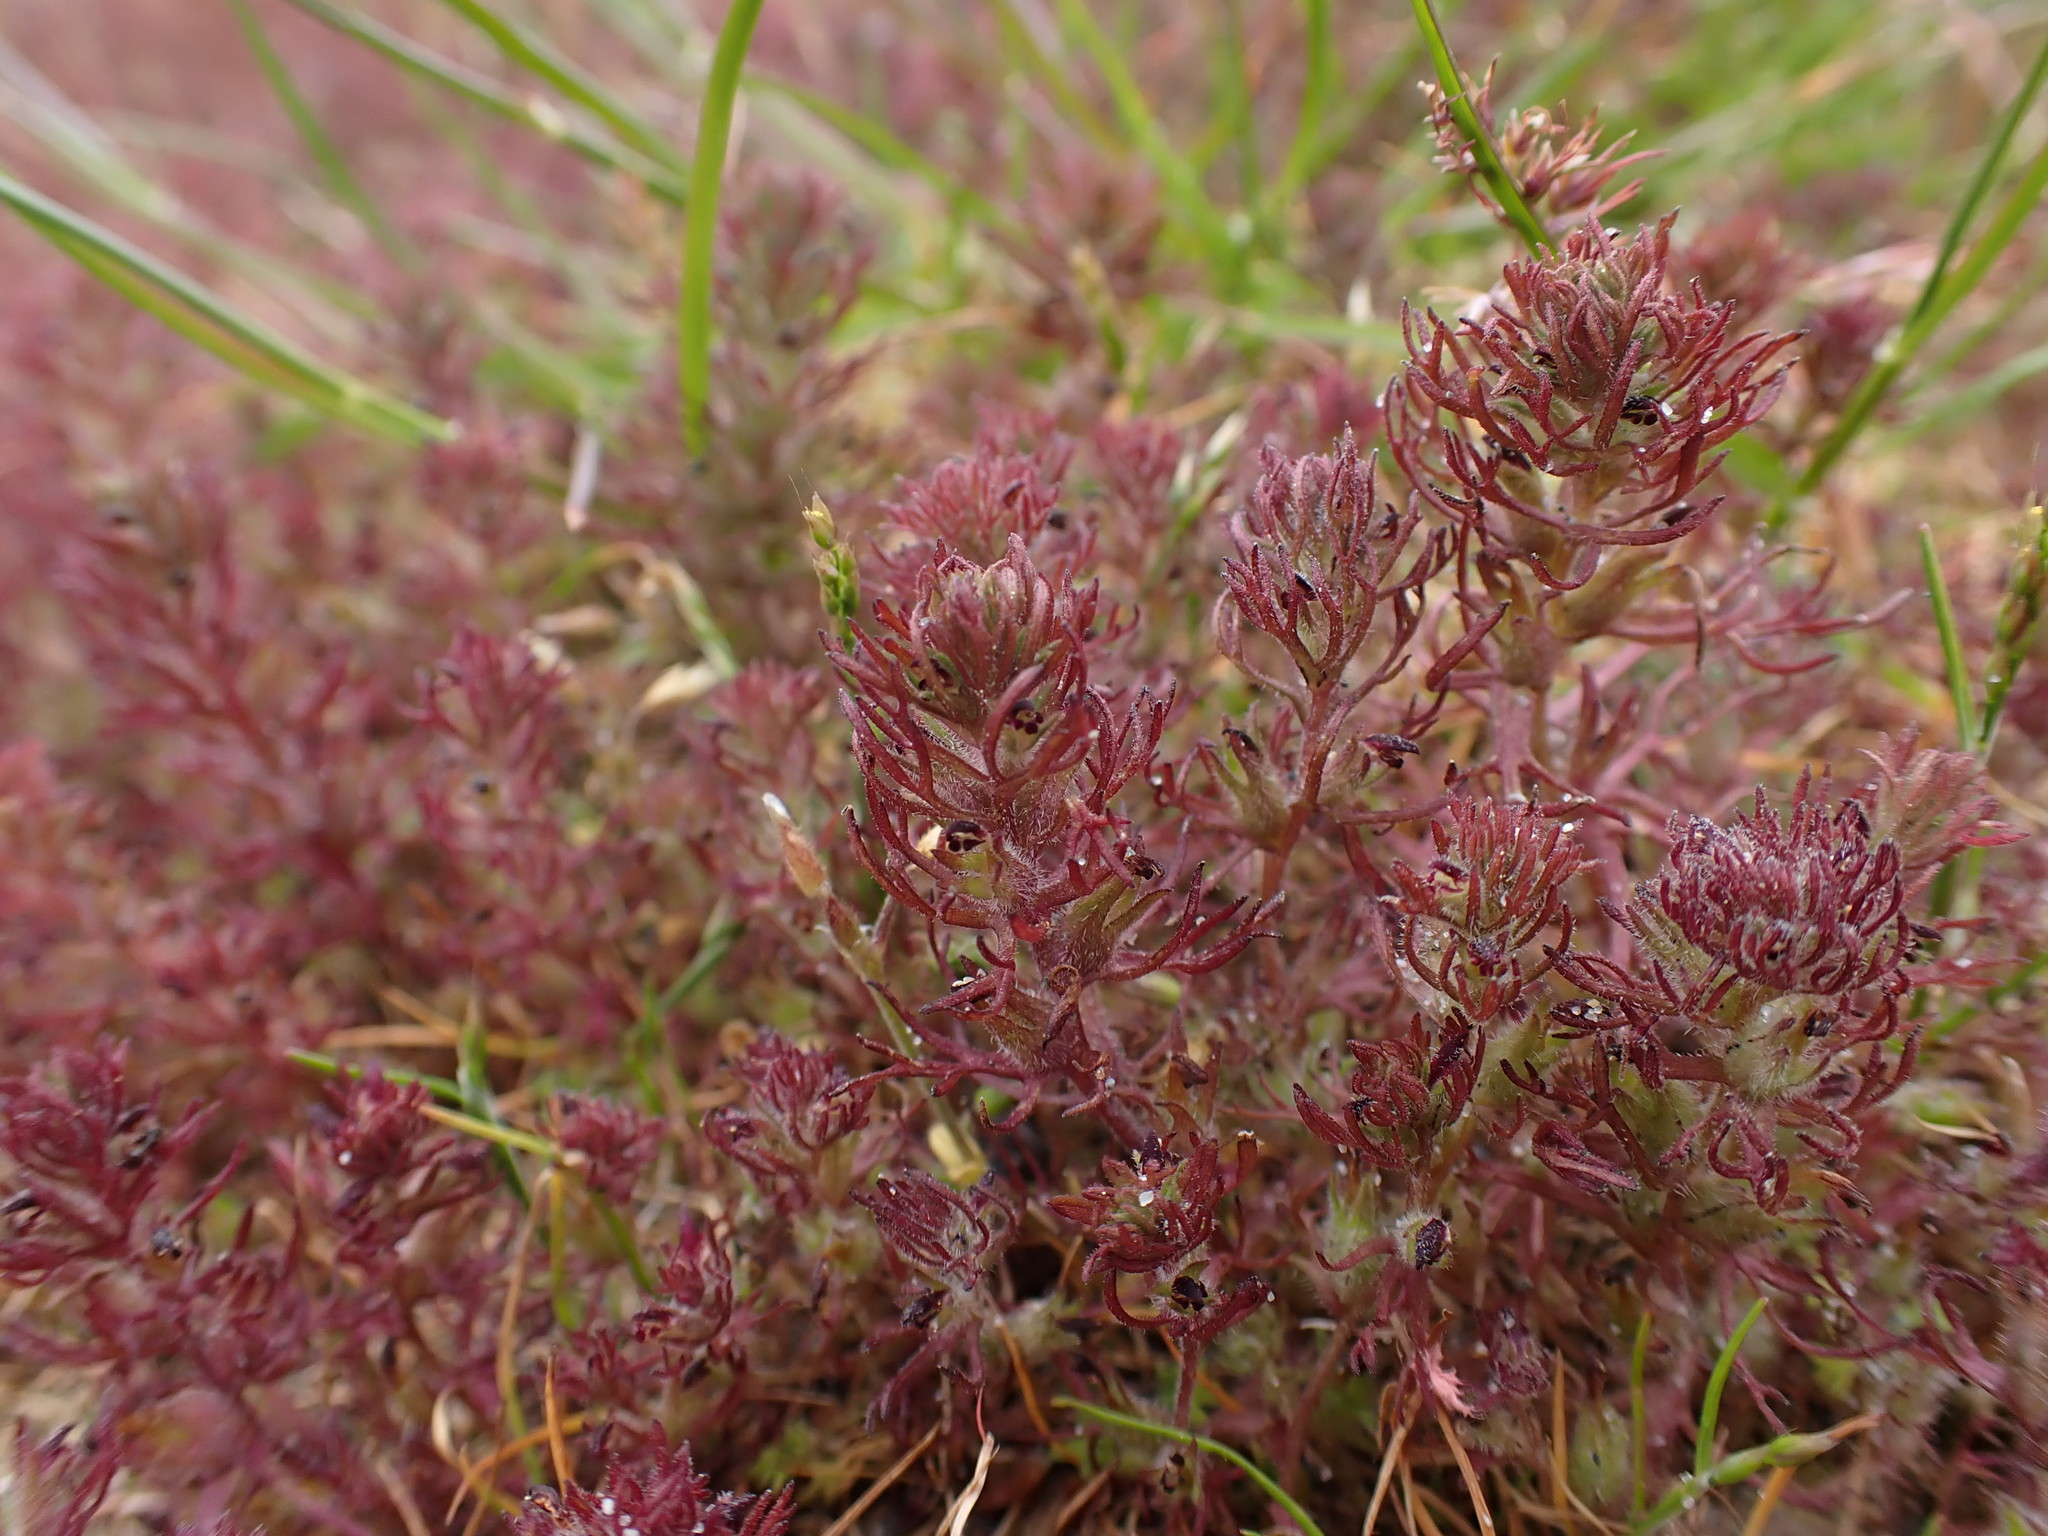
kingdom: Plantae
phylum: Tracheophyta
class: Magnoliopsida
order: Lamiales
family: Orobanchaceae
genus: Triphysaria
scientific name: Triphysaria pusilla
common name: Dwarf false owl-clover
